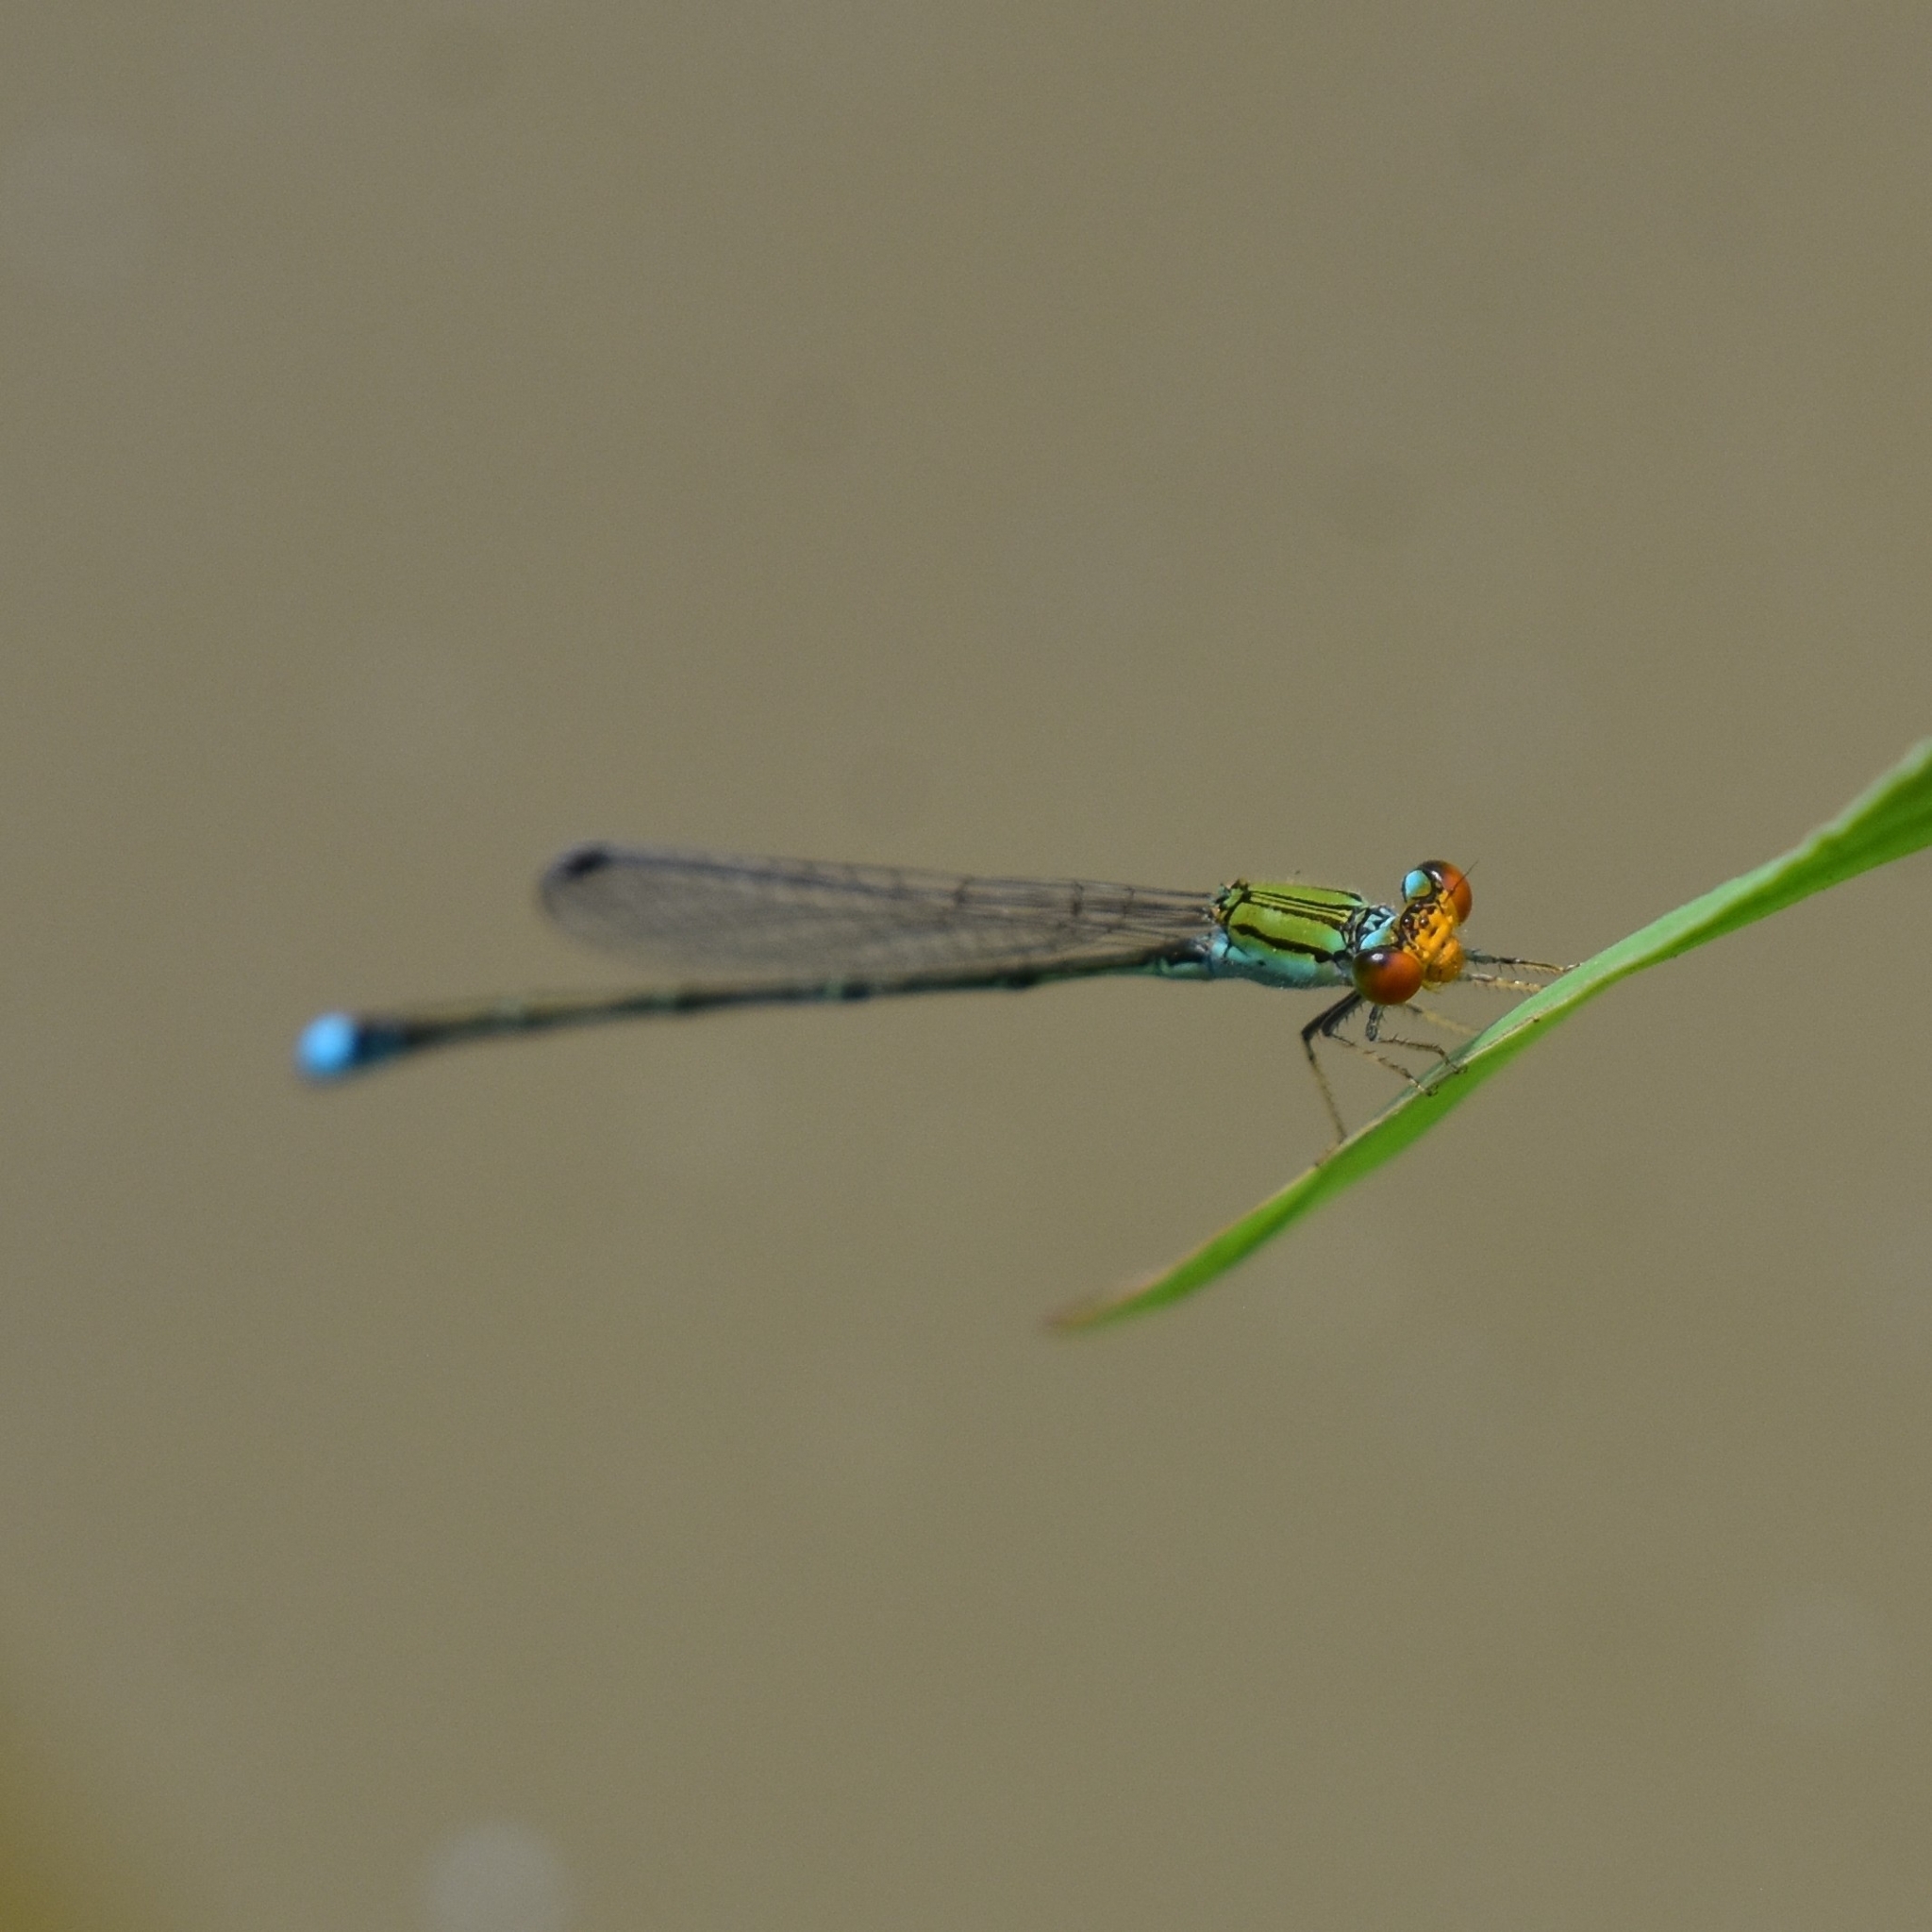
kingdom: Animalia
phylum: Arthropoda
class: Insecta
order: Odonata
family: Coenagrionidae
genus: Pseudagrion
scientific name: Pseudagrion rubriceps
